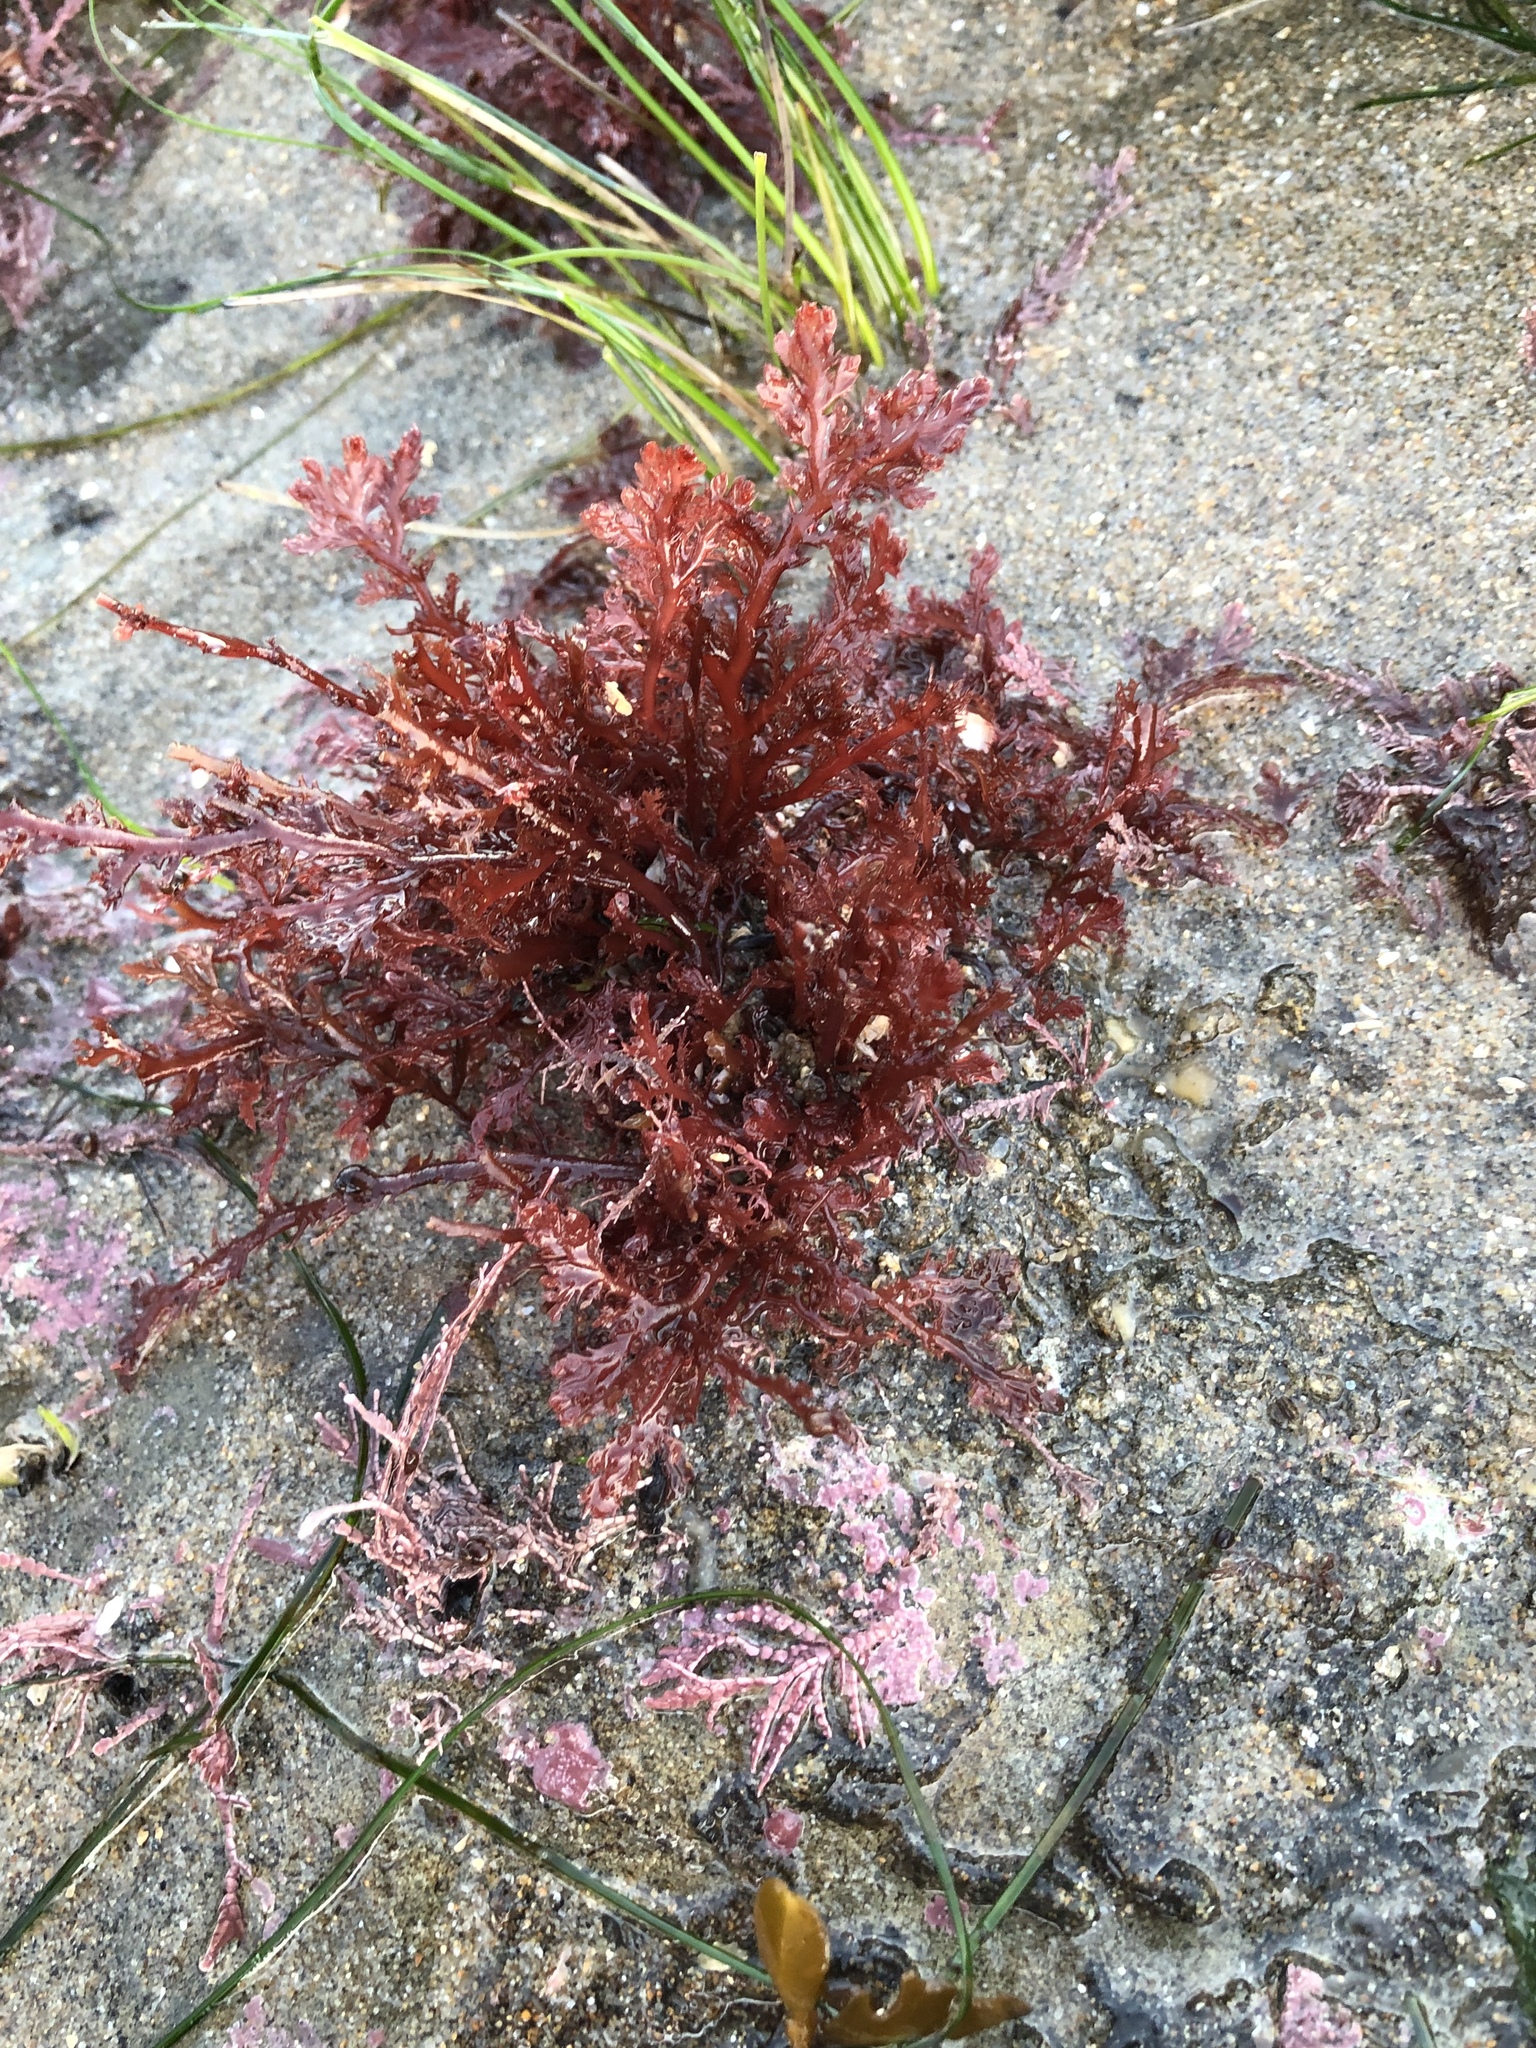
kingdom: Plantae
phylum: Rhodophyta
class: Florideophyceae
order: Plocamiales
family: Plocamiaceae
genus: Plocamium
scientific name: Plocamium cartilagineum
